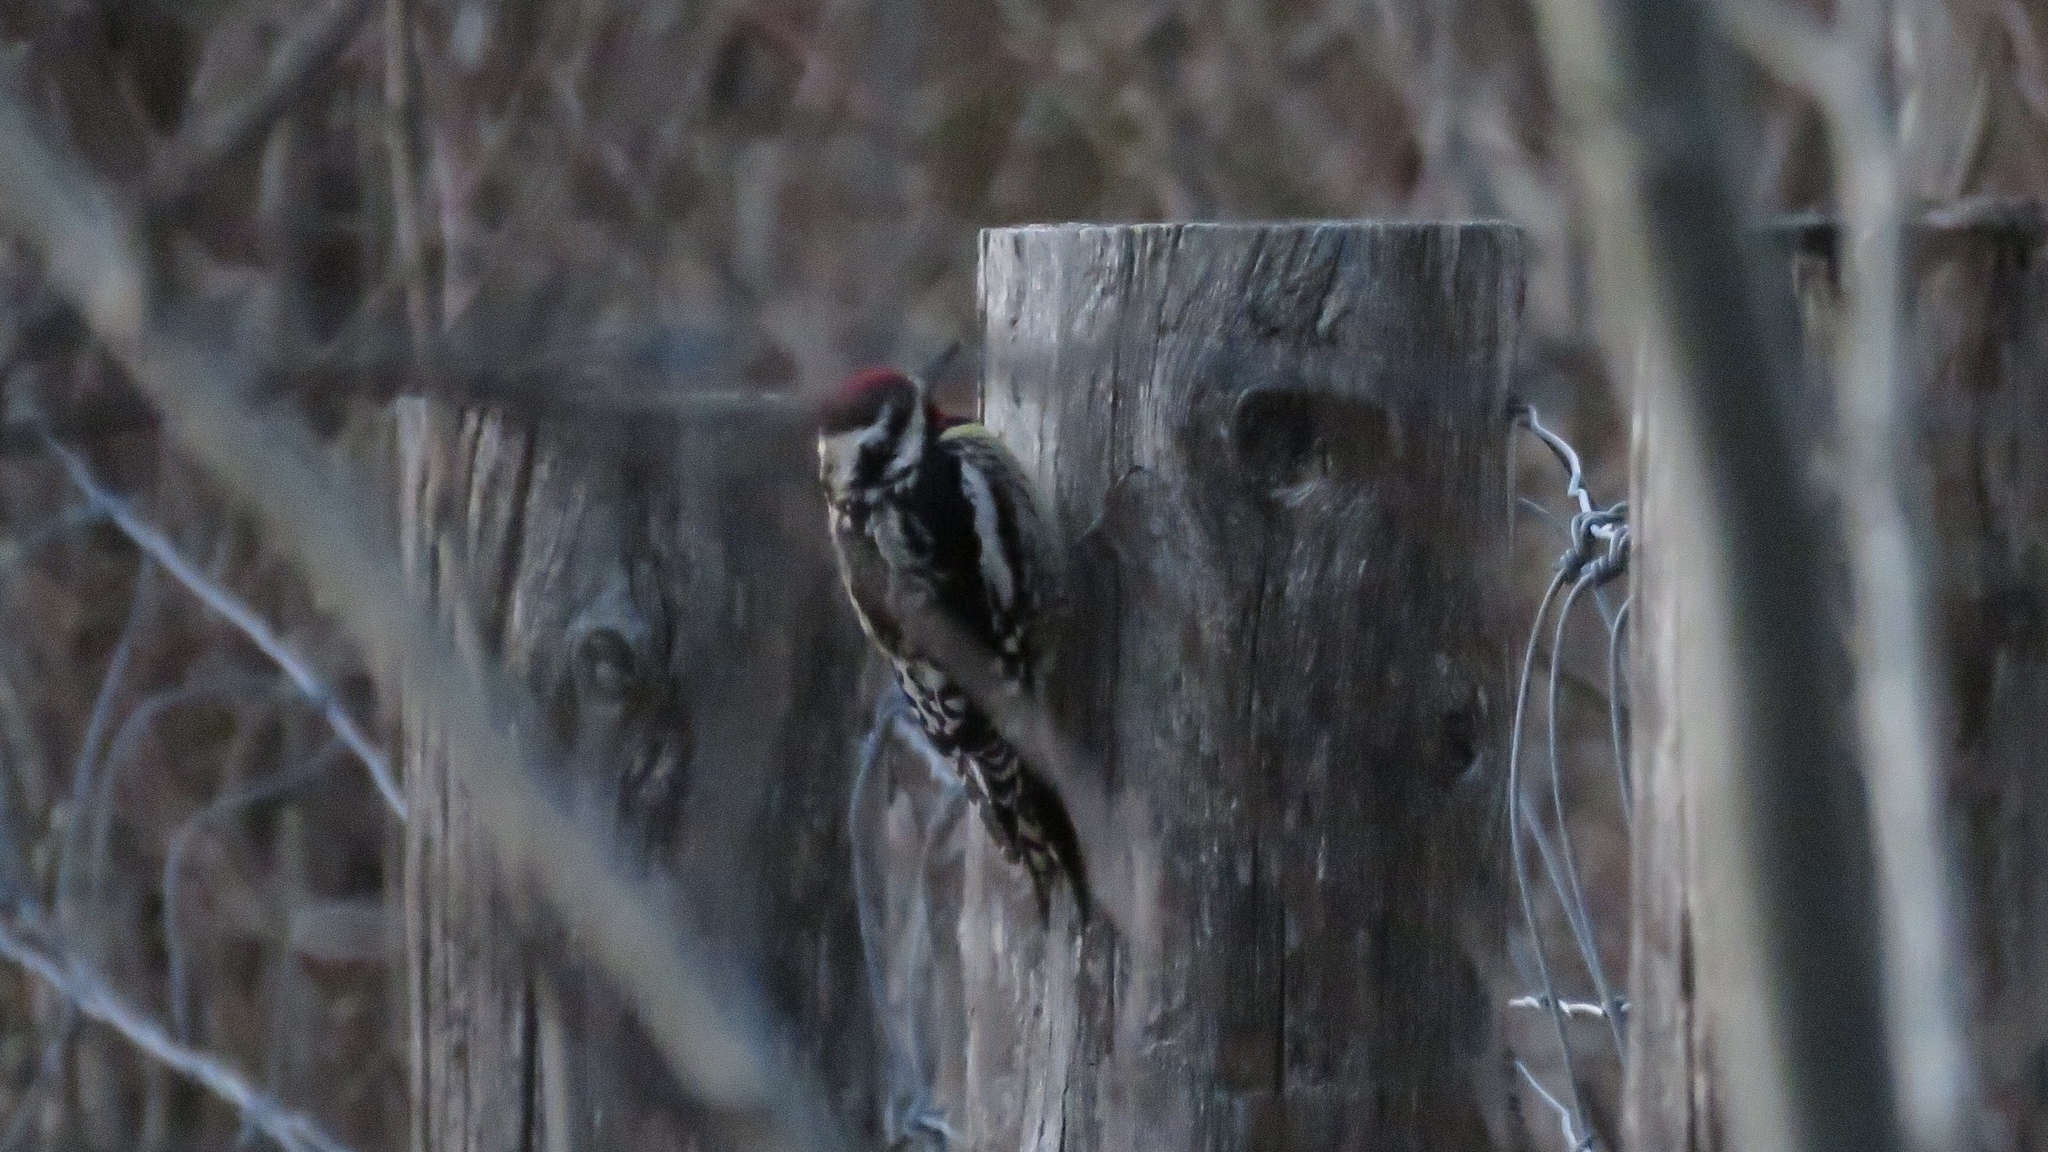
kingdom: Animalia
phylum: Chordata
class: Aves
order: Piciformes
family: Picidae
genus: Sphyrapicus
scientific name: Sphyrapicus varius
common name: Yellow-bellied sapsucker
